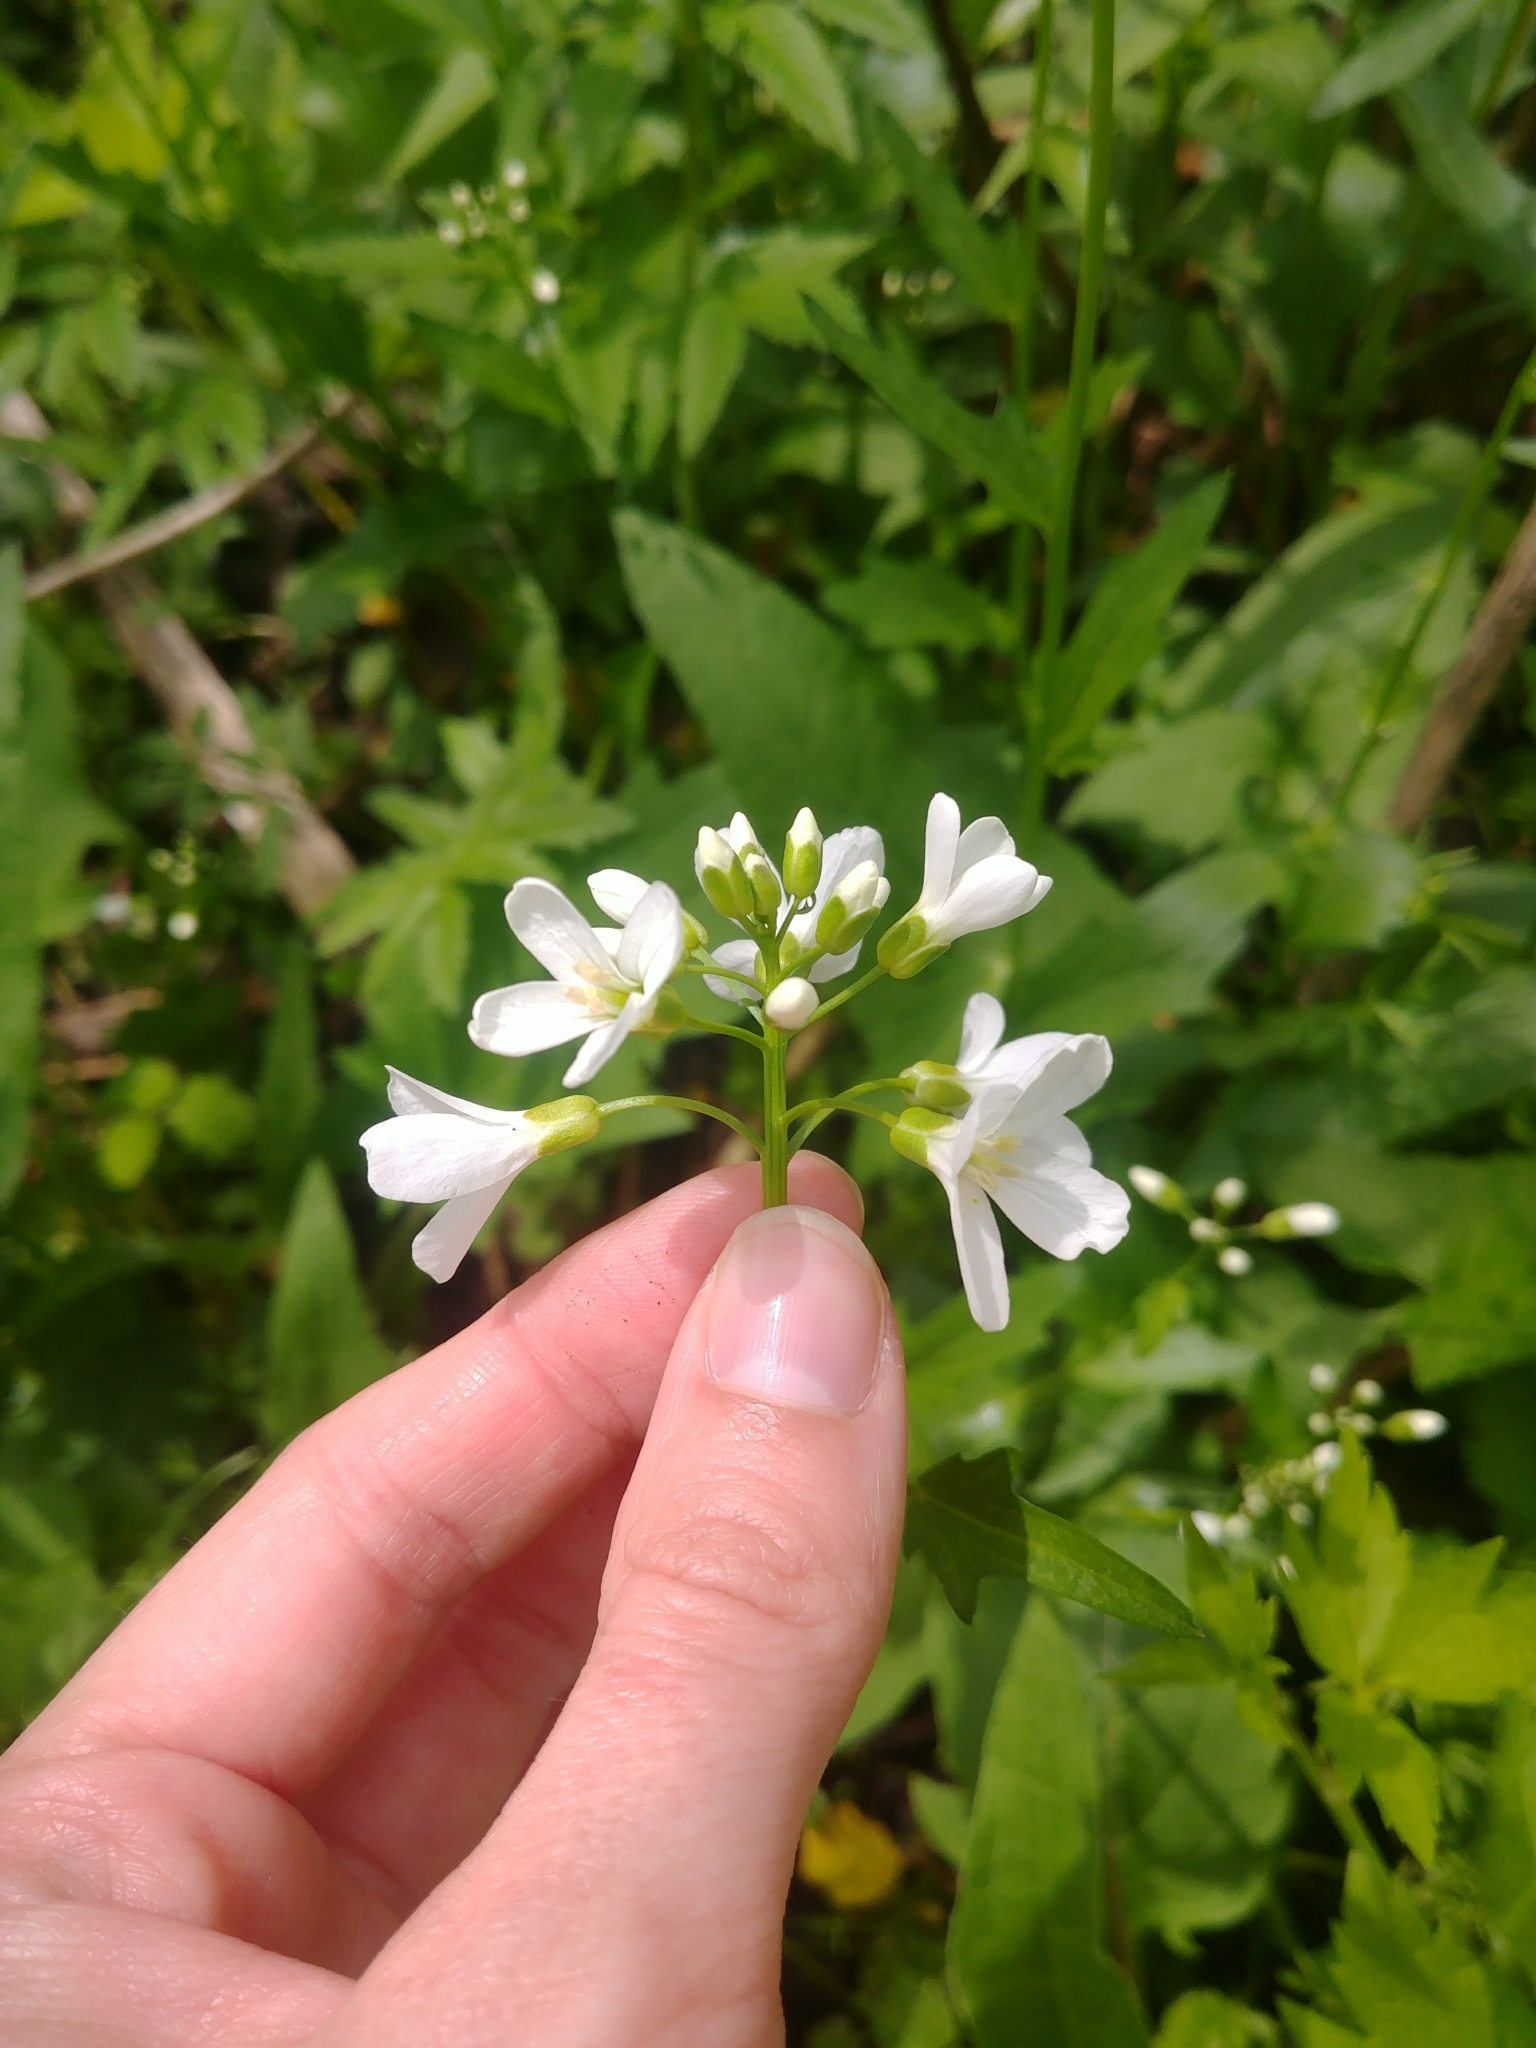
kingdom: Plantae
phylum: Tracheophyta
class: Magnoliopsida
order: Brassicales
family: Brassicaceae
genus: Cardamine
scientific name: Cardamine bulbosa
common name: Spring cress
